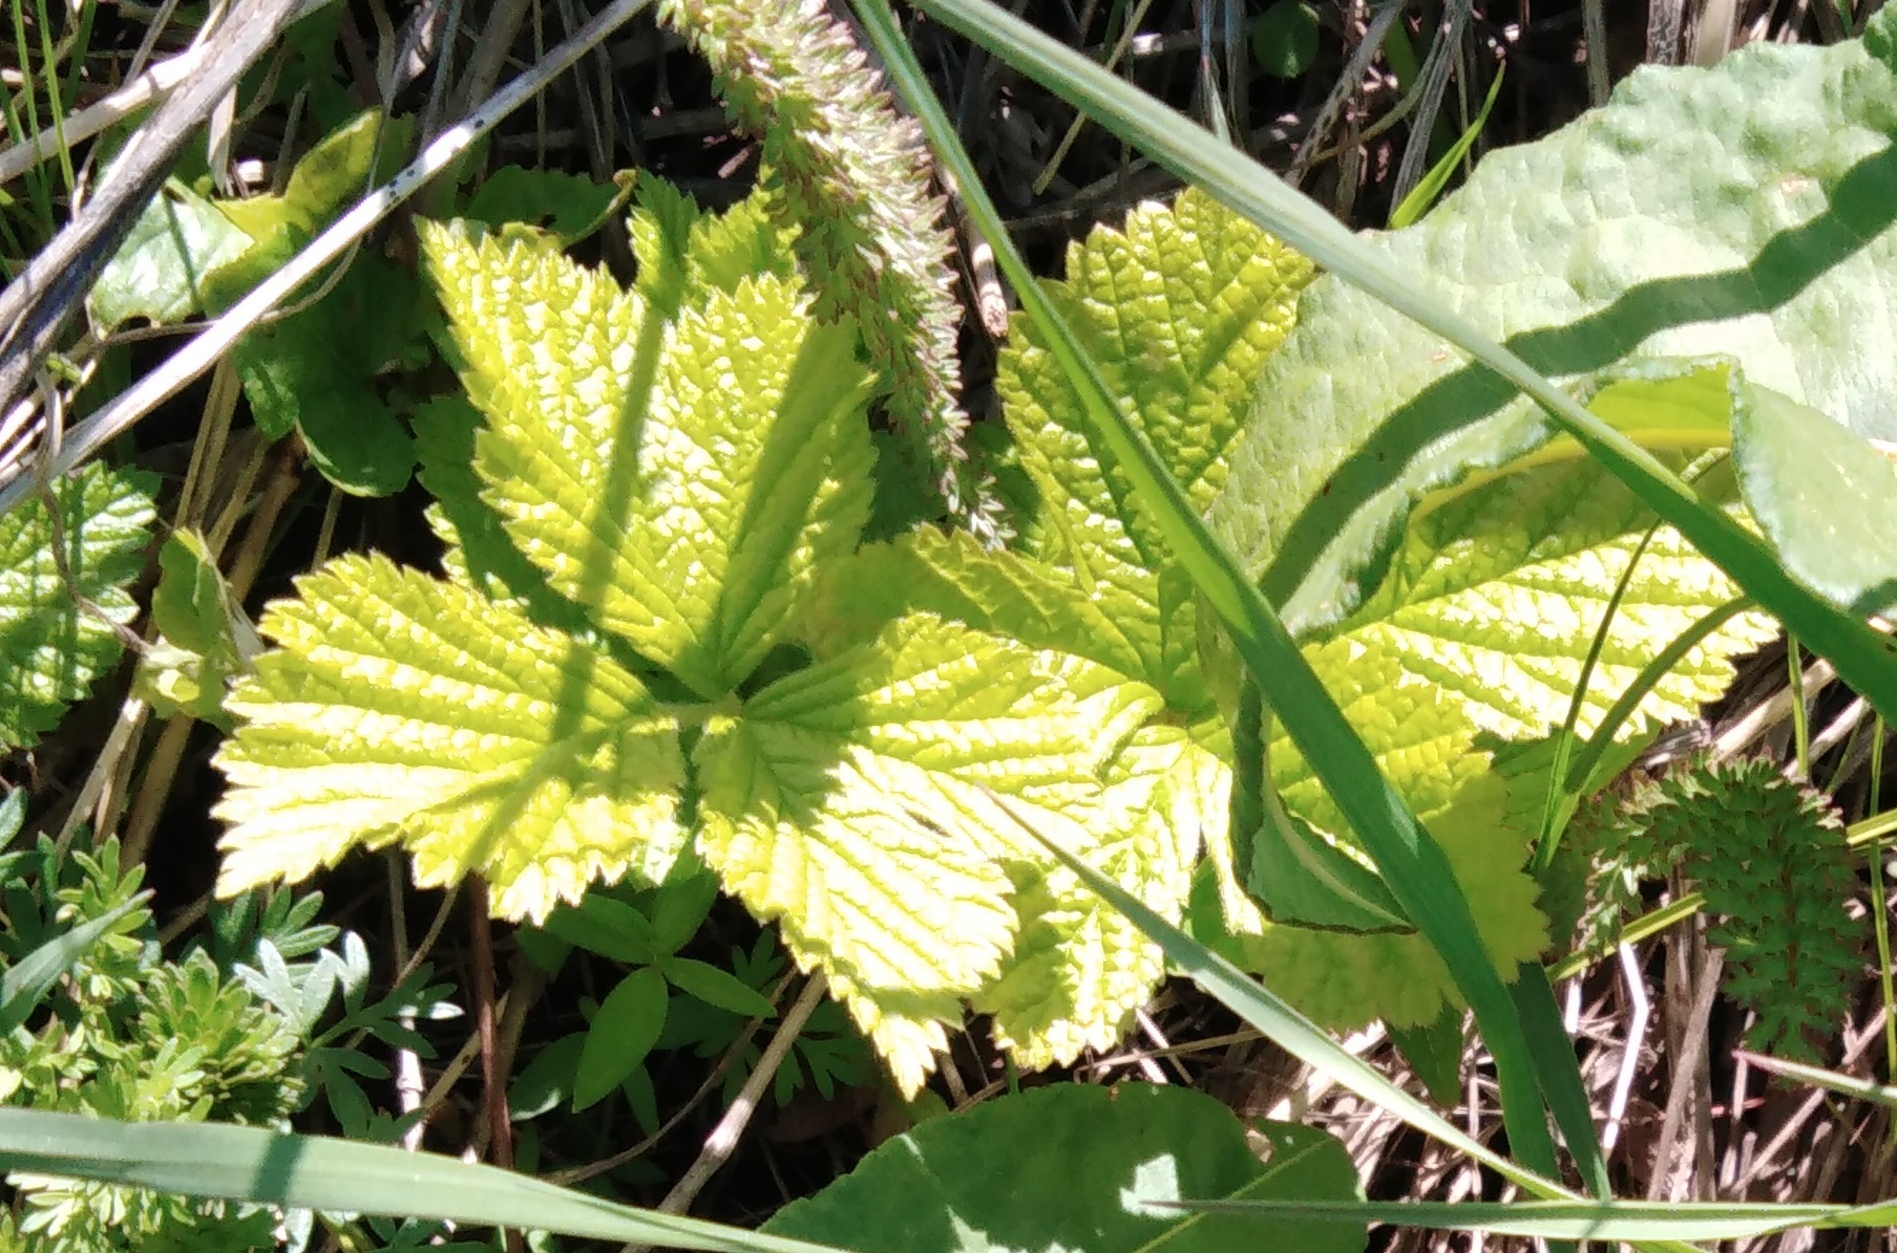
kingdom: Plantae
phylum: Tracheophyta
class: Magnoliopsida
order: Rosales
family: Rosaceae
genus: Rubus
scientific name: Rubus saxatilis
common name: Stone bramble
